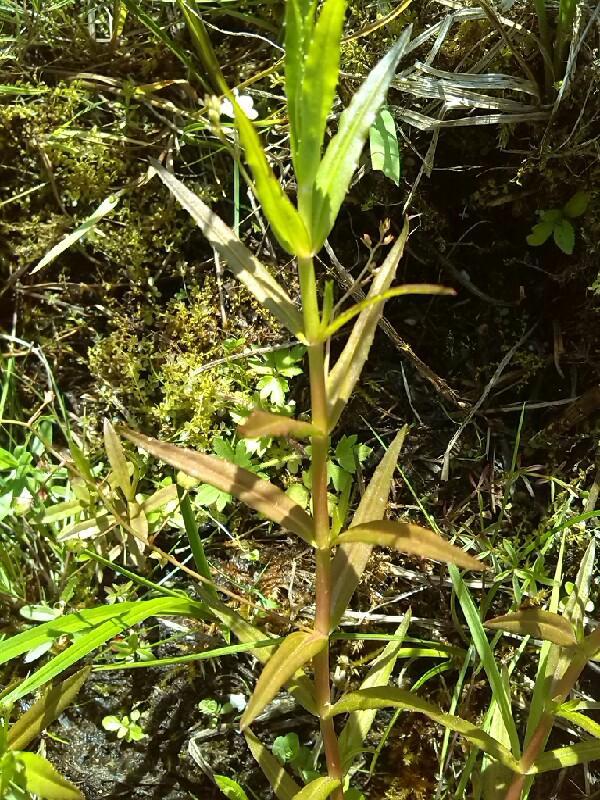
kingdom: Plantae
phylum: Tracheophyta
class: Magnoliopsida
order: Lamiales
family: Plantaginaceae
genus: Veronica
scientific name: Veronica scutellata
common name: Marsh speedwell
